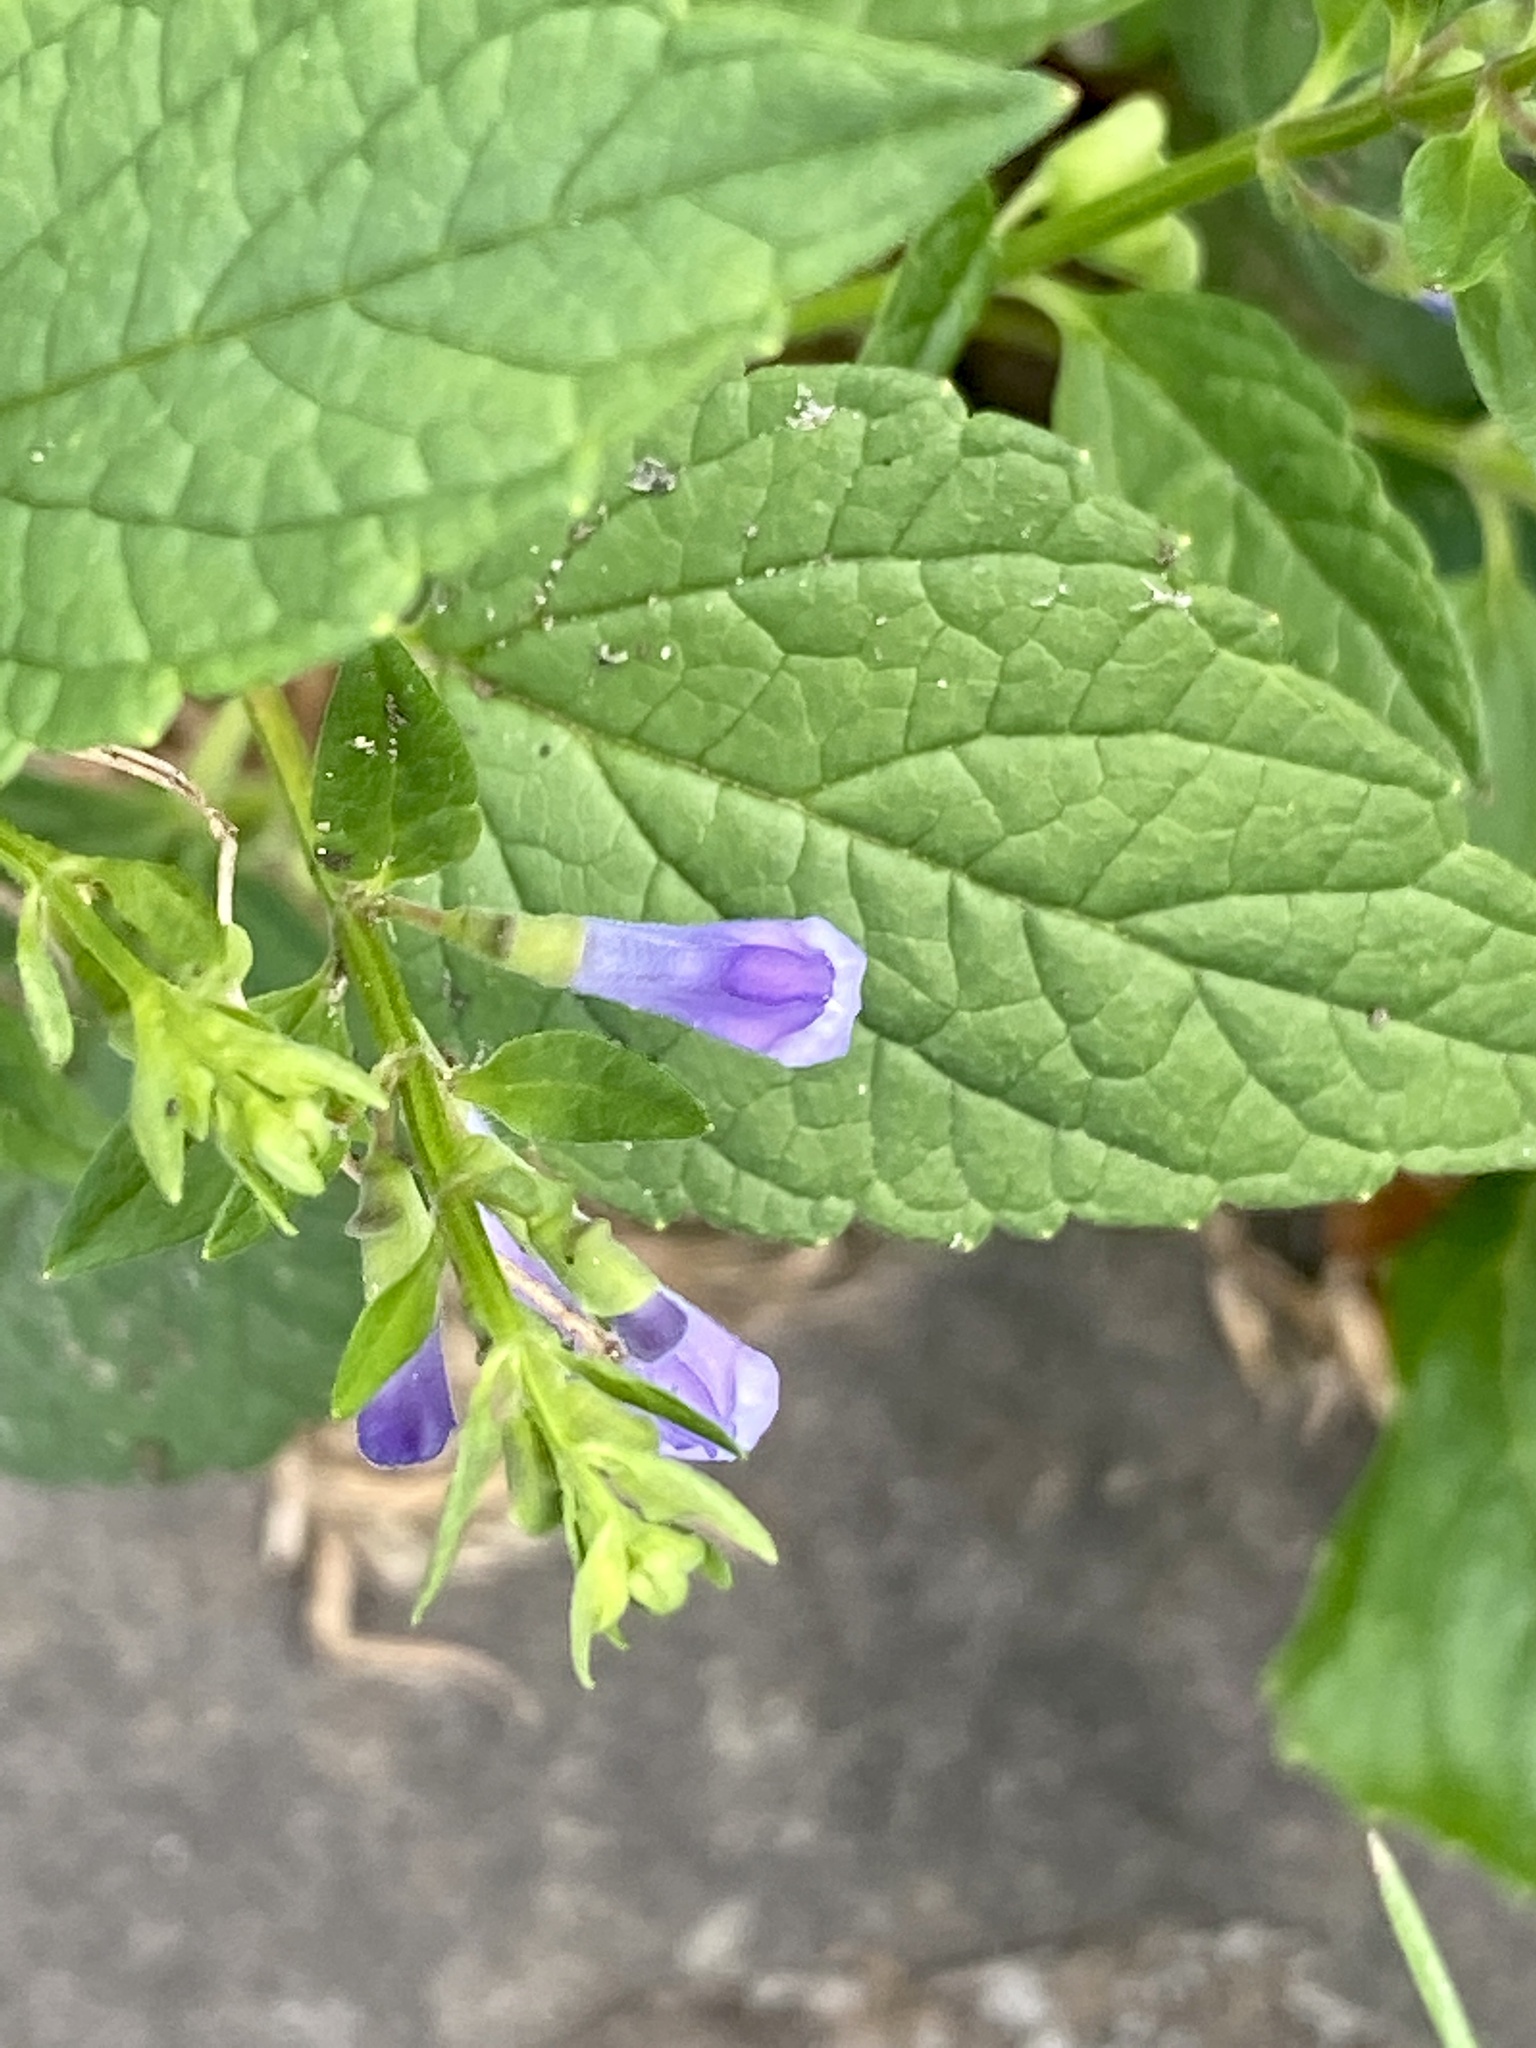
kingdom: Plantae
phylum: Tracheophyta
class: Magnoliopsida
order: Lamiales
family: Lamiaceae
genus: Scutellaria
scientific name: Scutellaria lateriflora
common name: Blue skullcap
